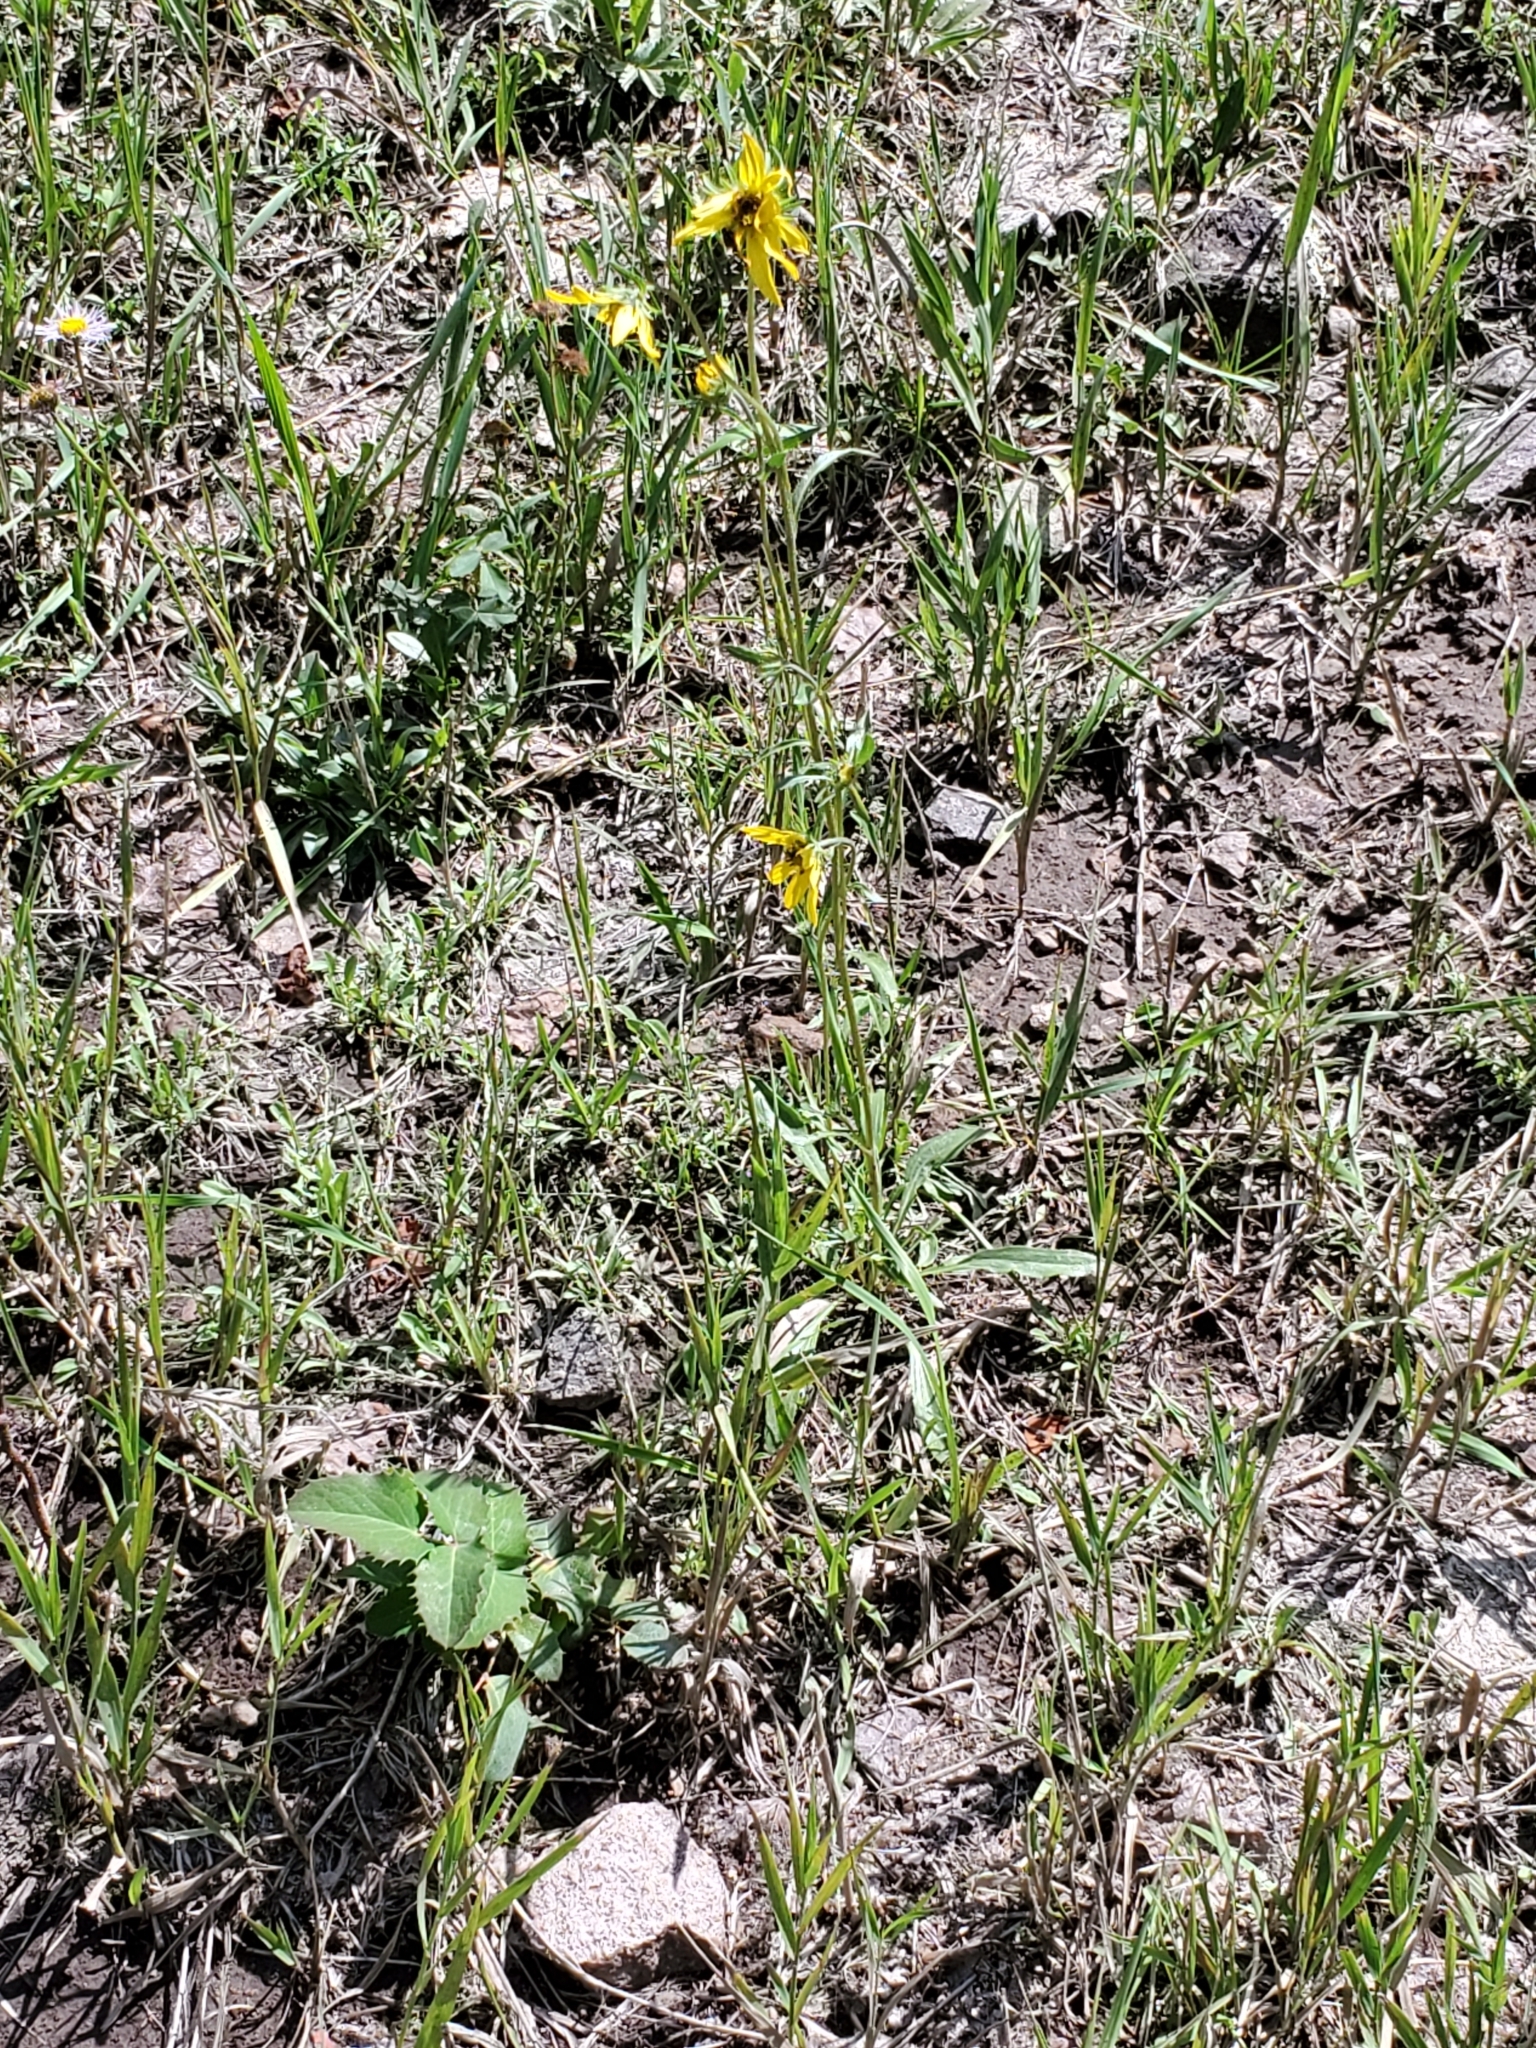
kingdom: Plantae
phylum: Tracheophyta
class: Magnoliopsida
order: Asterales
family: Asteraceae
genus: Helianthella
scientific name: Helianthella parryi
